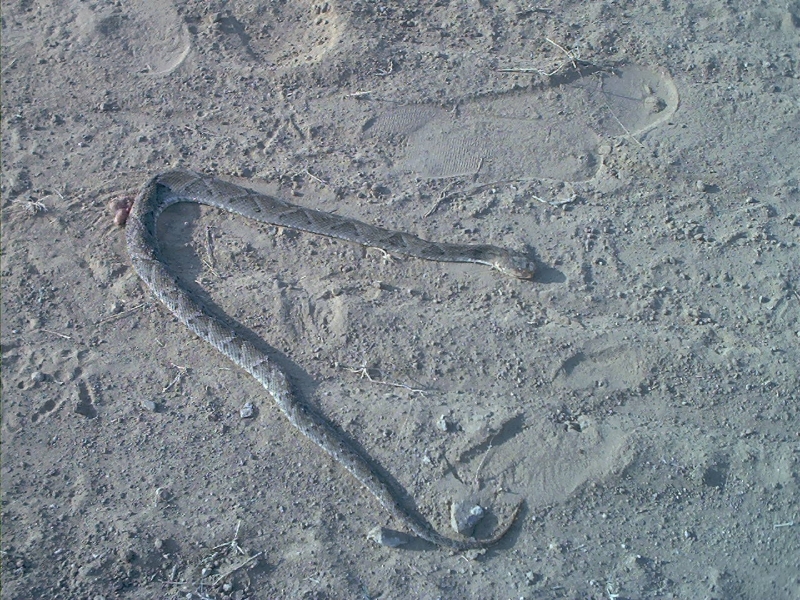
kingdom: Animalia
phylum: Chordata
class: Squamata
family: Viperidae
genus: Bothrops
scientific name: Bothrops moojeni
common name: Brazilian lancehead
